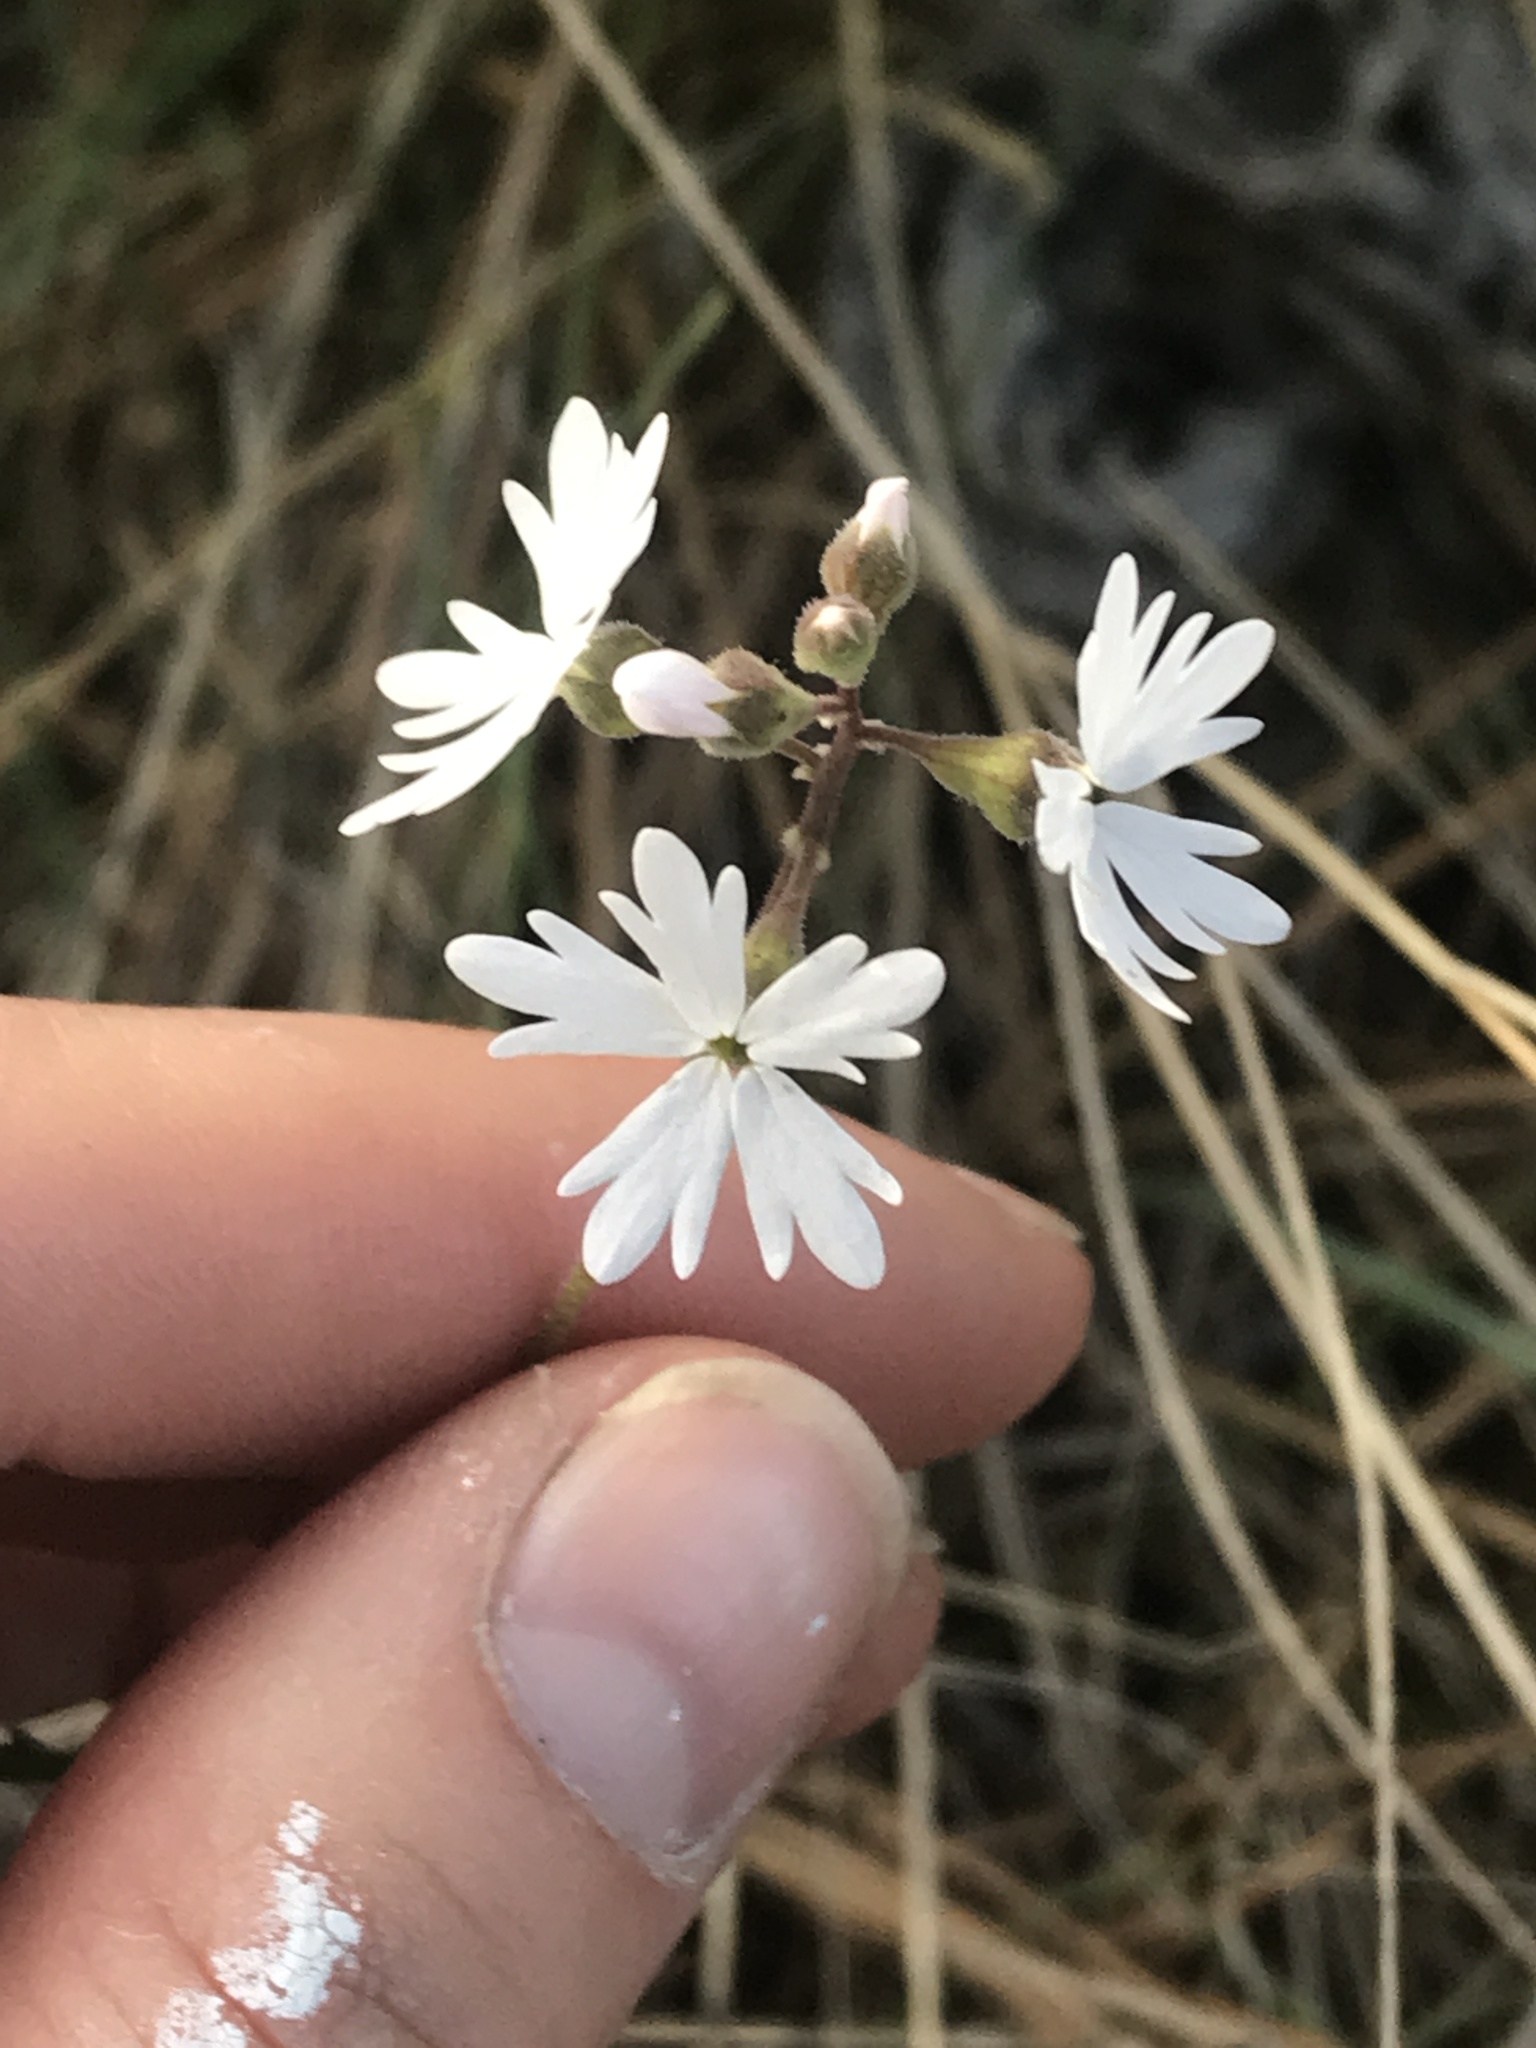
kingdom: Plantae
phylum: Tracheophyta
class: Magnoliopsida
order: Saxifragales
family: Saxifragaceae
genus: Lithophragma
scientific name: Lithophragma parviflorum
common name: Small-flowered fringe-cup
